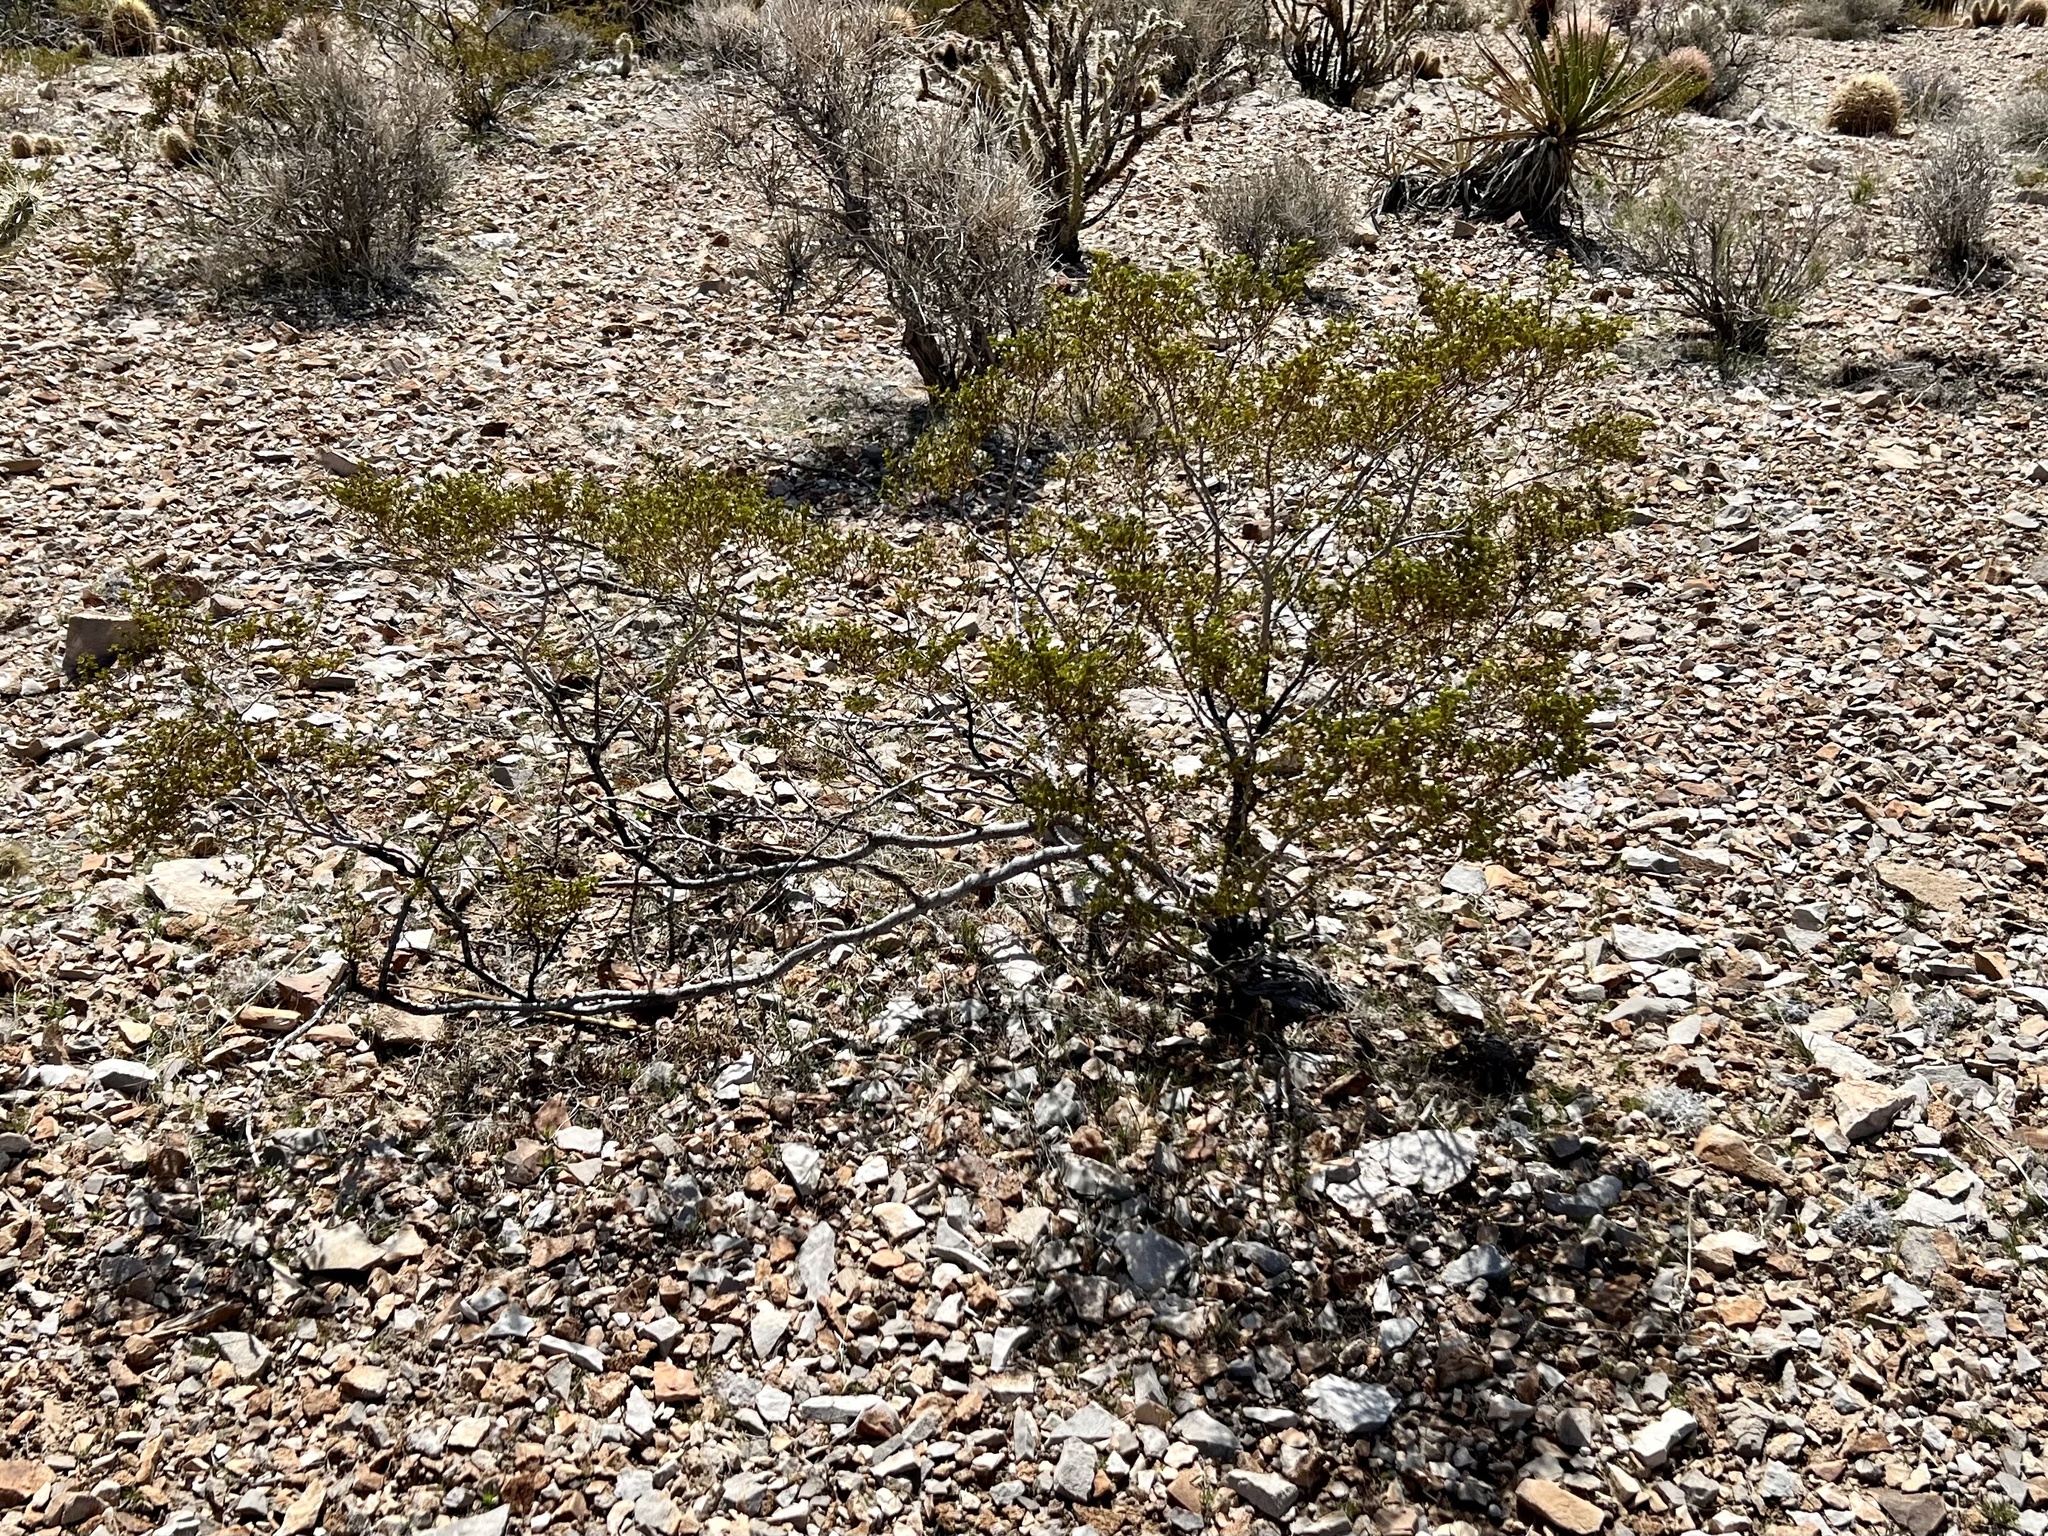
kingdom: Plantae
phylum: Tracheophyta
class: Magnoliopsida
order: Zygophyllales
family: Zygophyllaceae
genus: Larrea
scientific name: Larrea tridentata
